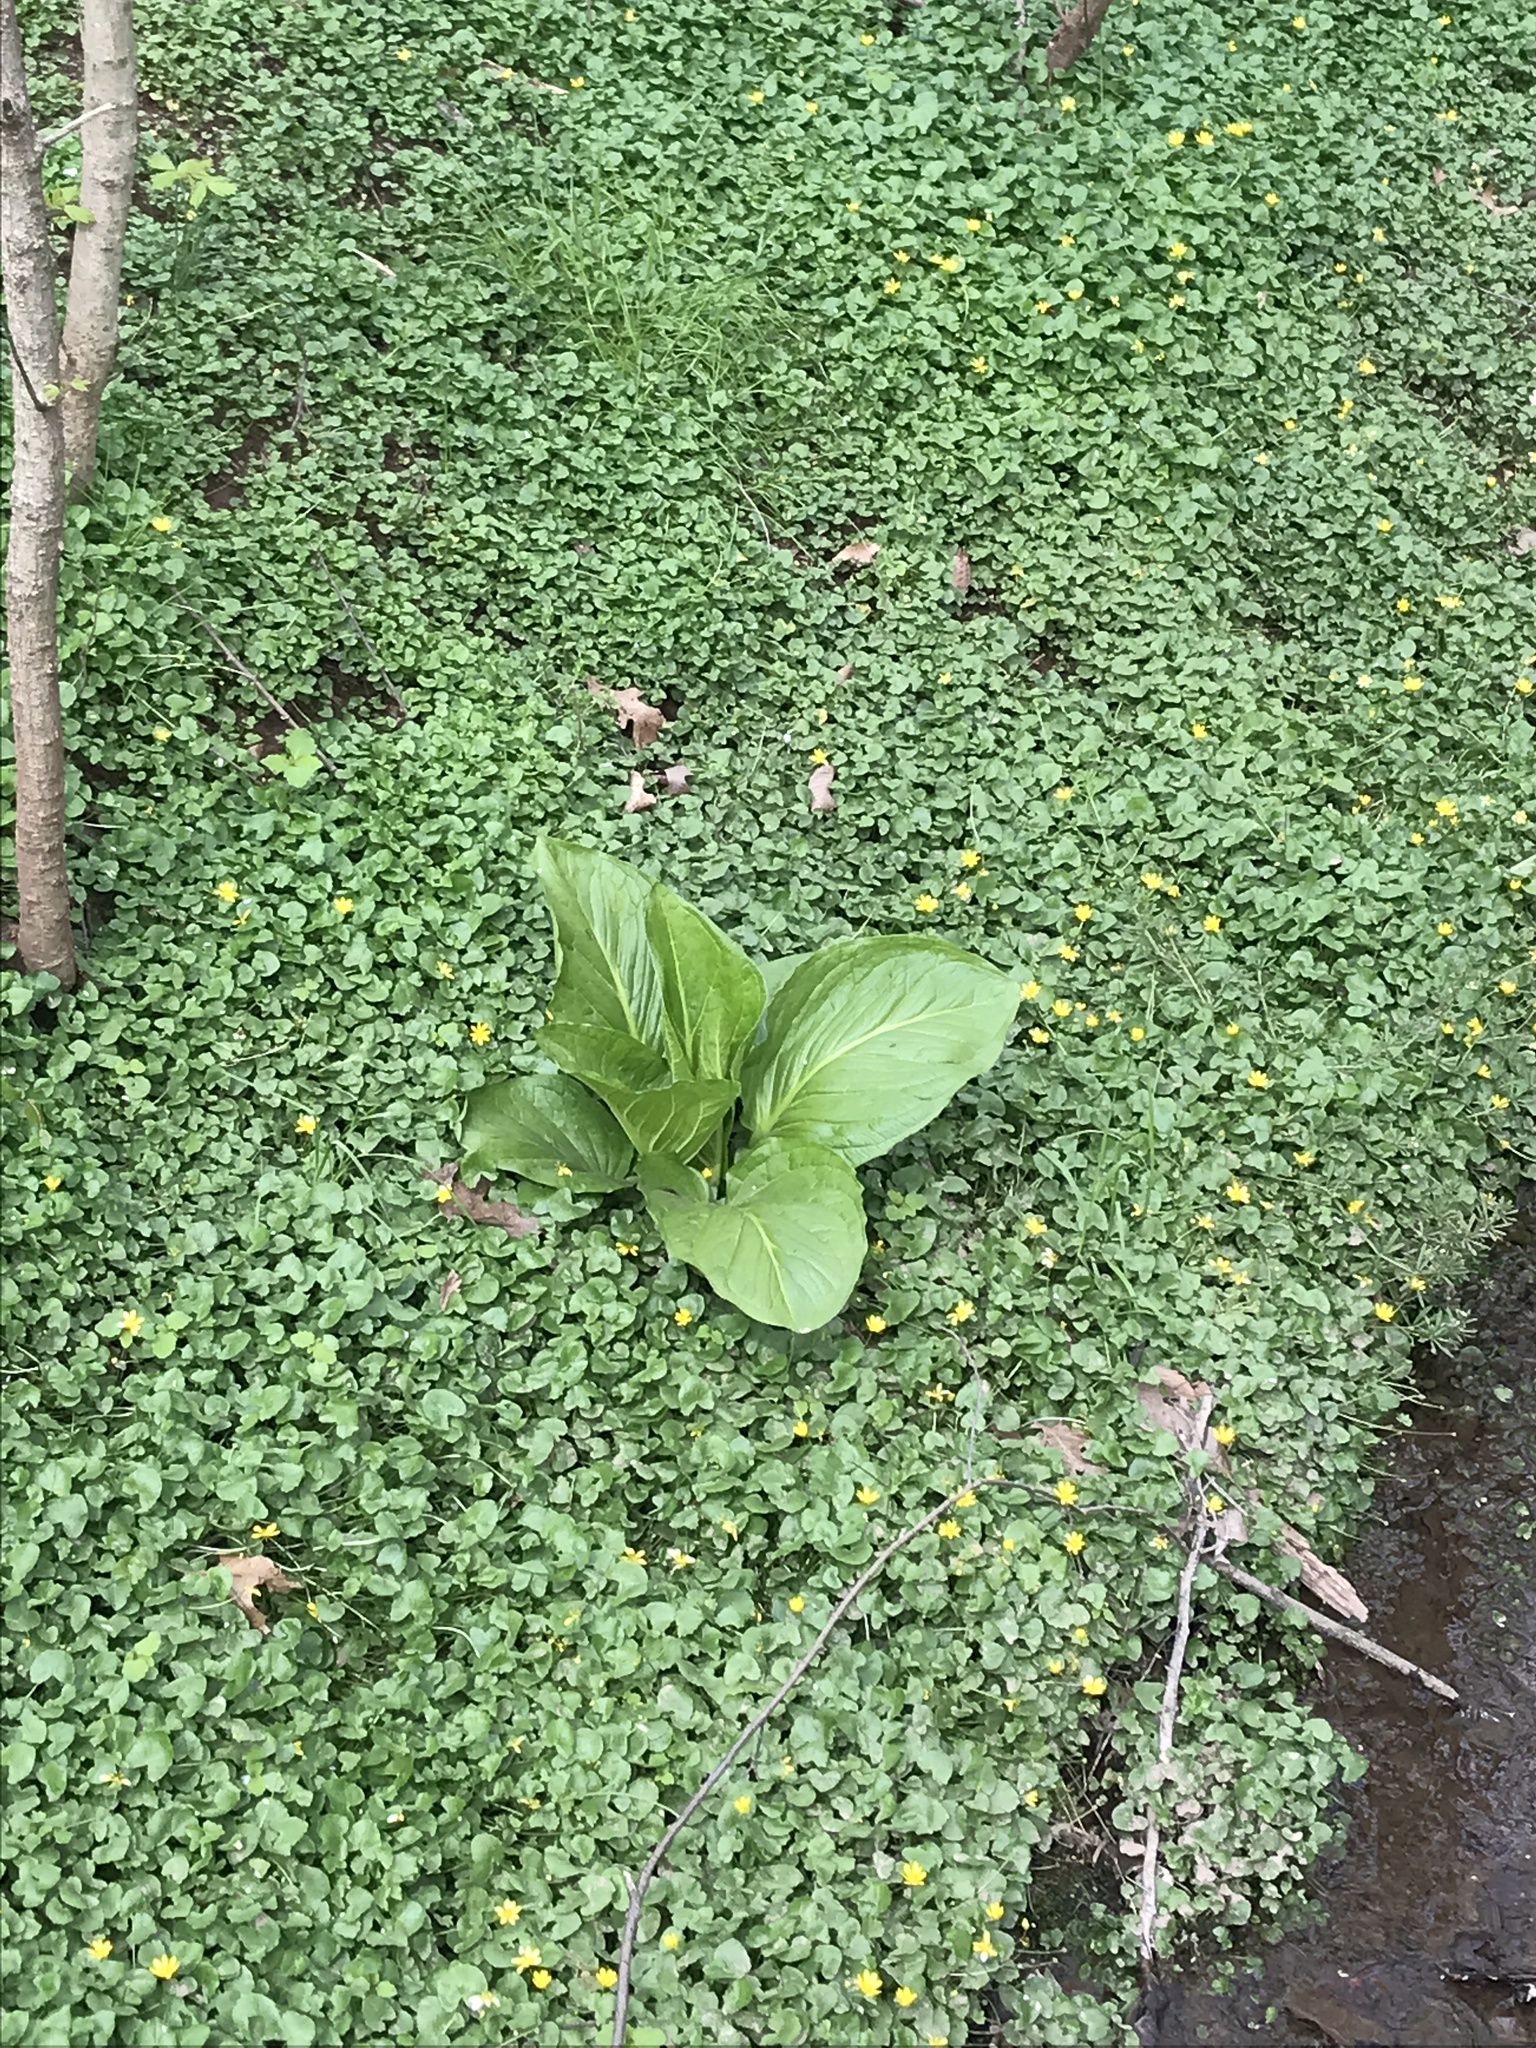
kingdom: Plantae
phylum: Tracheophyta
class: Liliopsida
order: Alismatales
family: Araceae
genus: Symplocarpus
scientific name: Symplocarpus foetidus
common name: Eastern skunk cabbage
